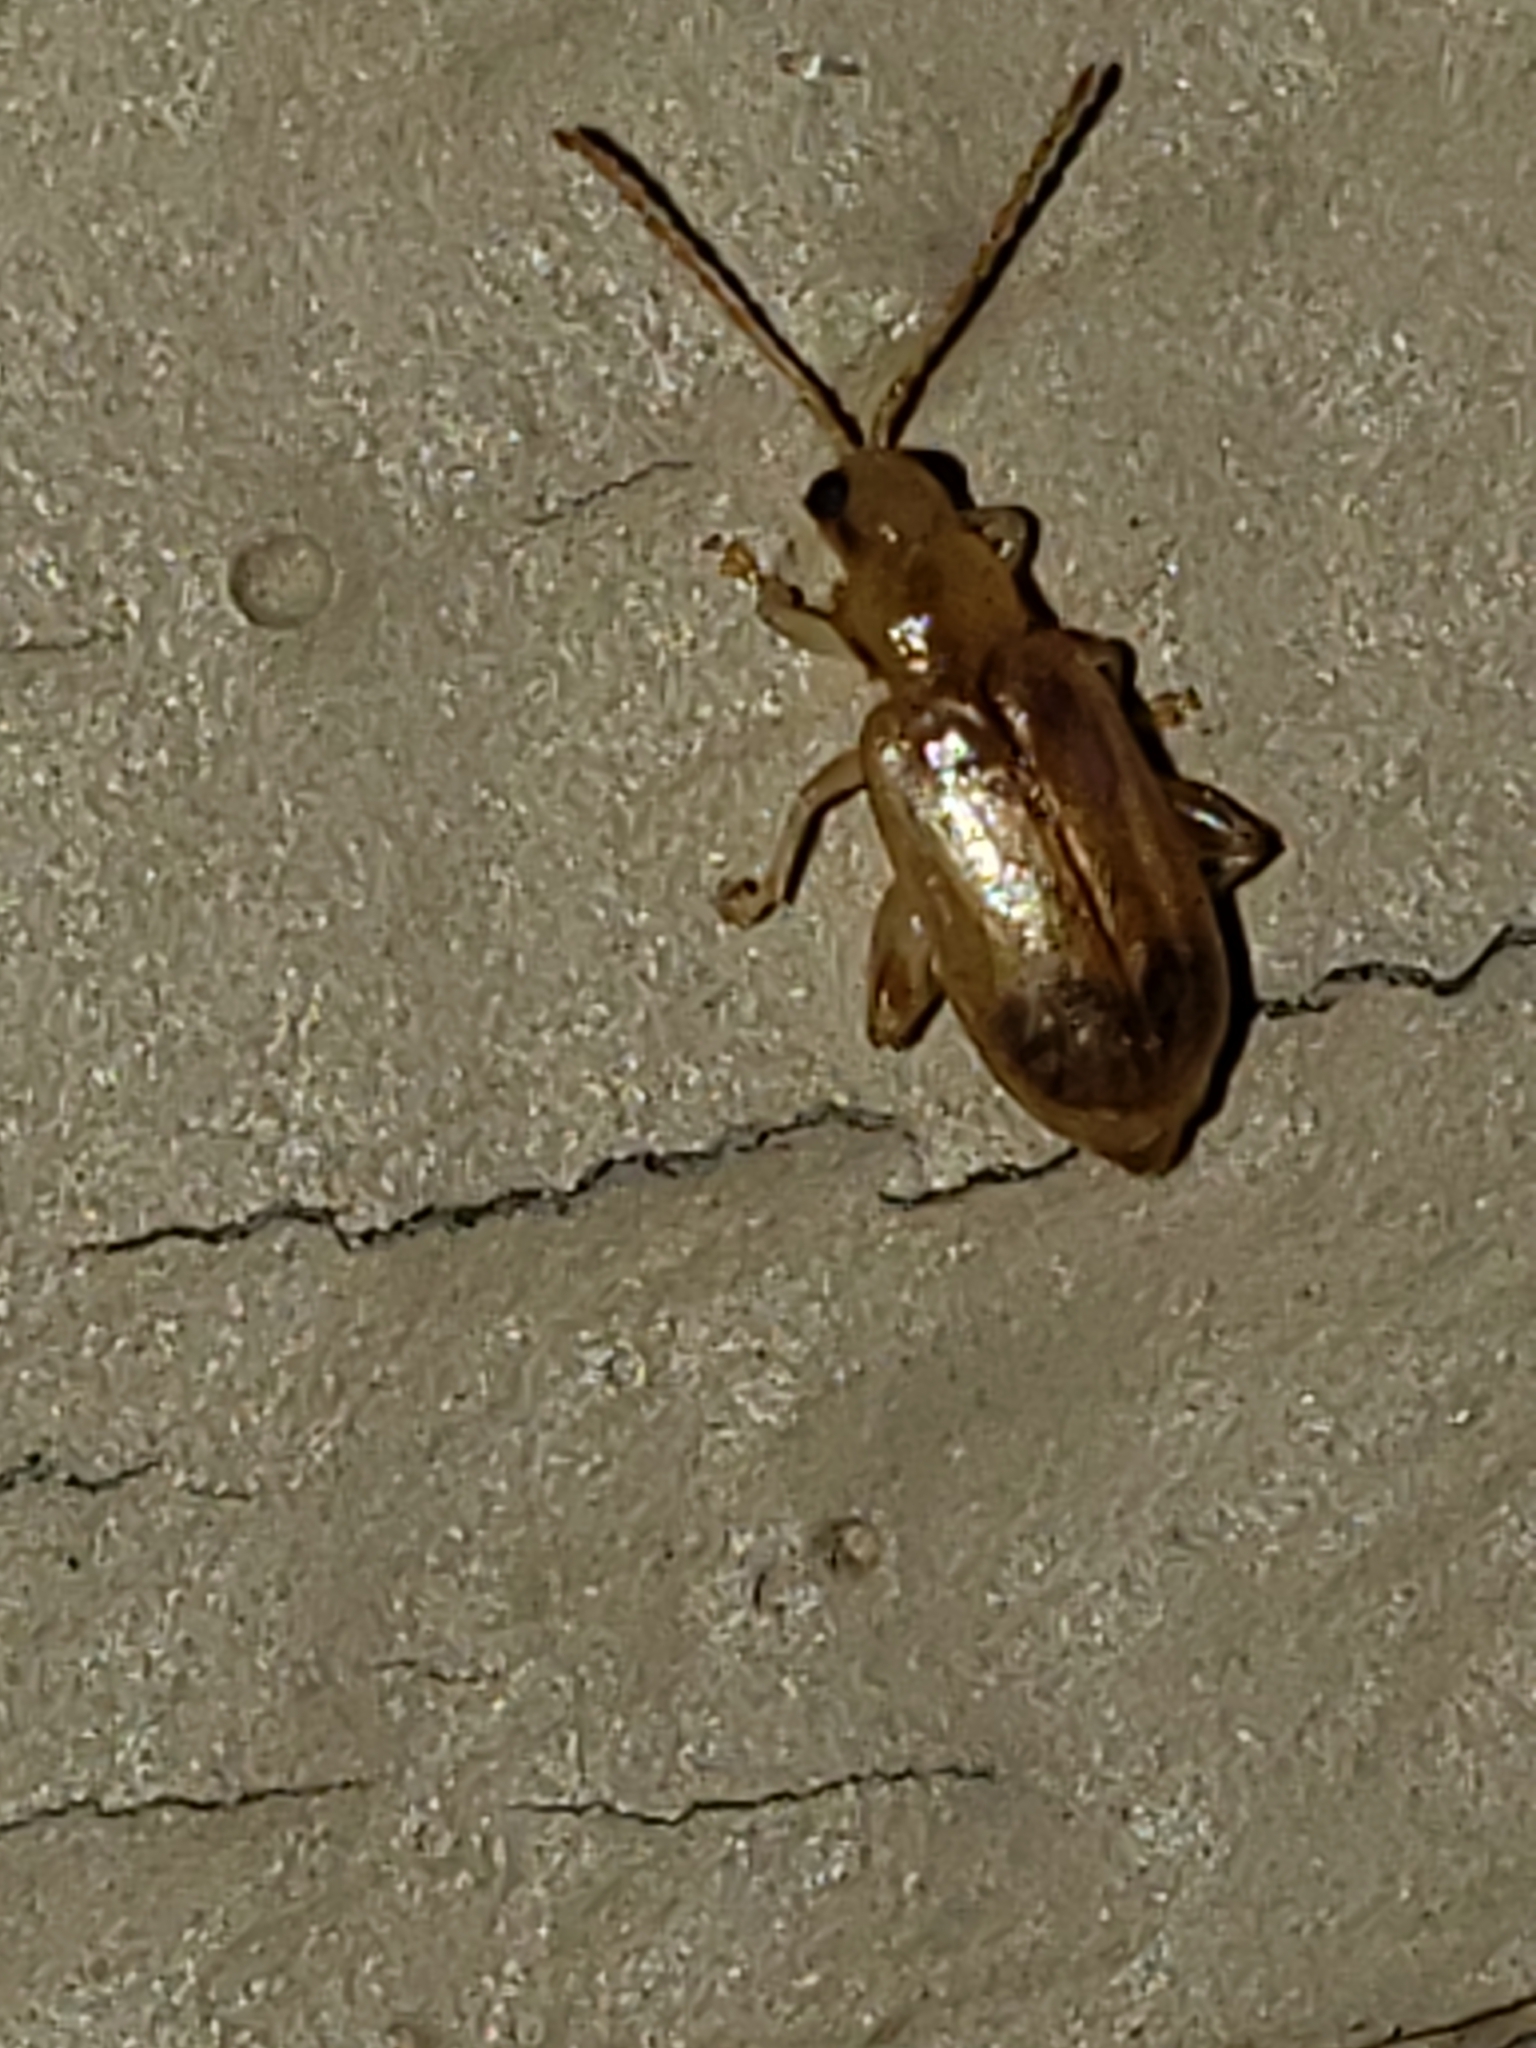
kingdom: Animalia
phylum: Arthropoda
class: Insecta
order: Coleoptera
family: Chrysomelidae
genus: Systena
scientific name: Systena marginalis
